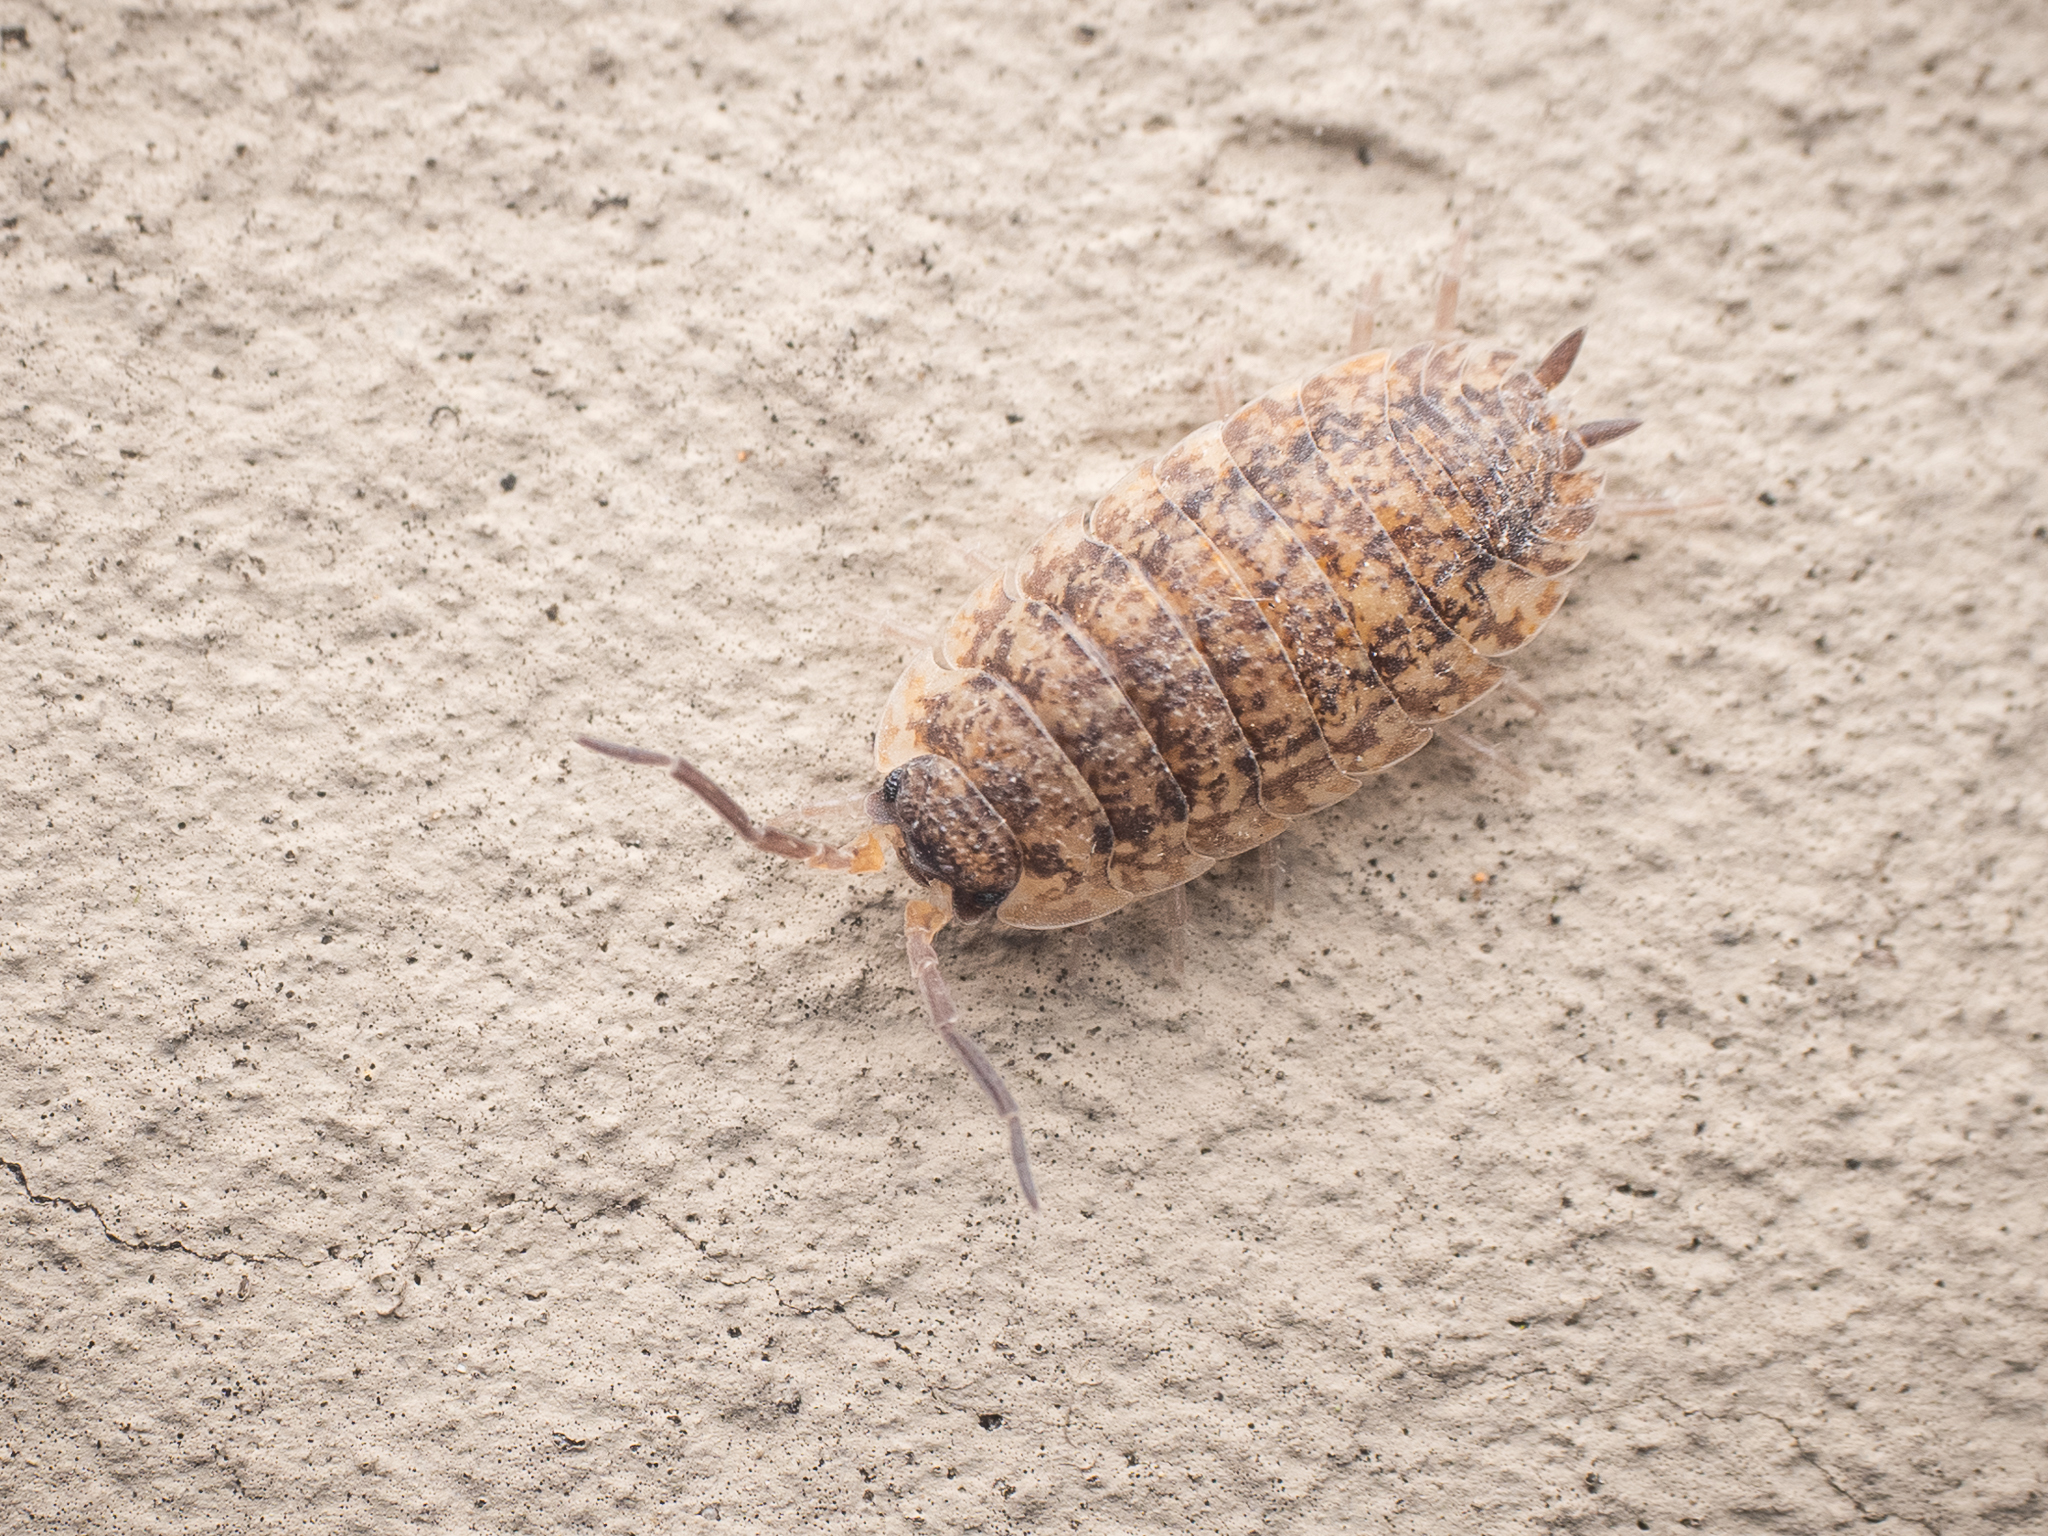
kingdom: Animalia
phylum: Arthropoda
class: Malacostraca
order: Isopoda
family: Porcellionidae
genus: Porcellio
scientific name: Porcellio scaber
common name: Common rough woodlouse
